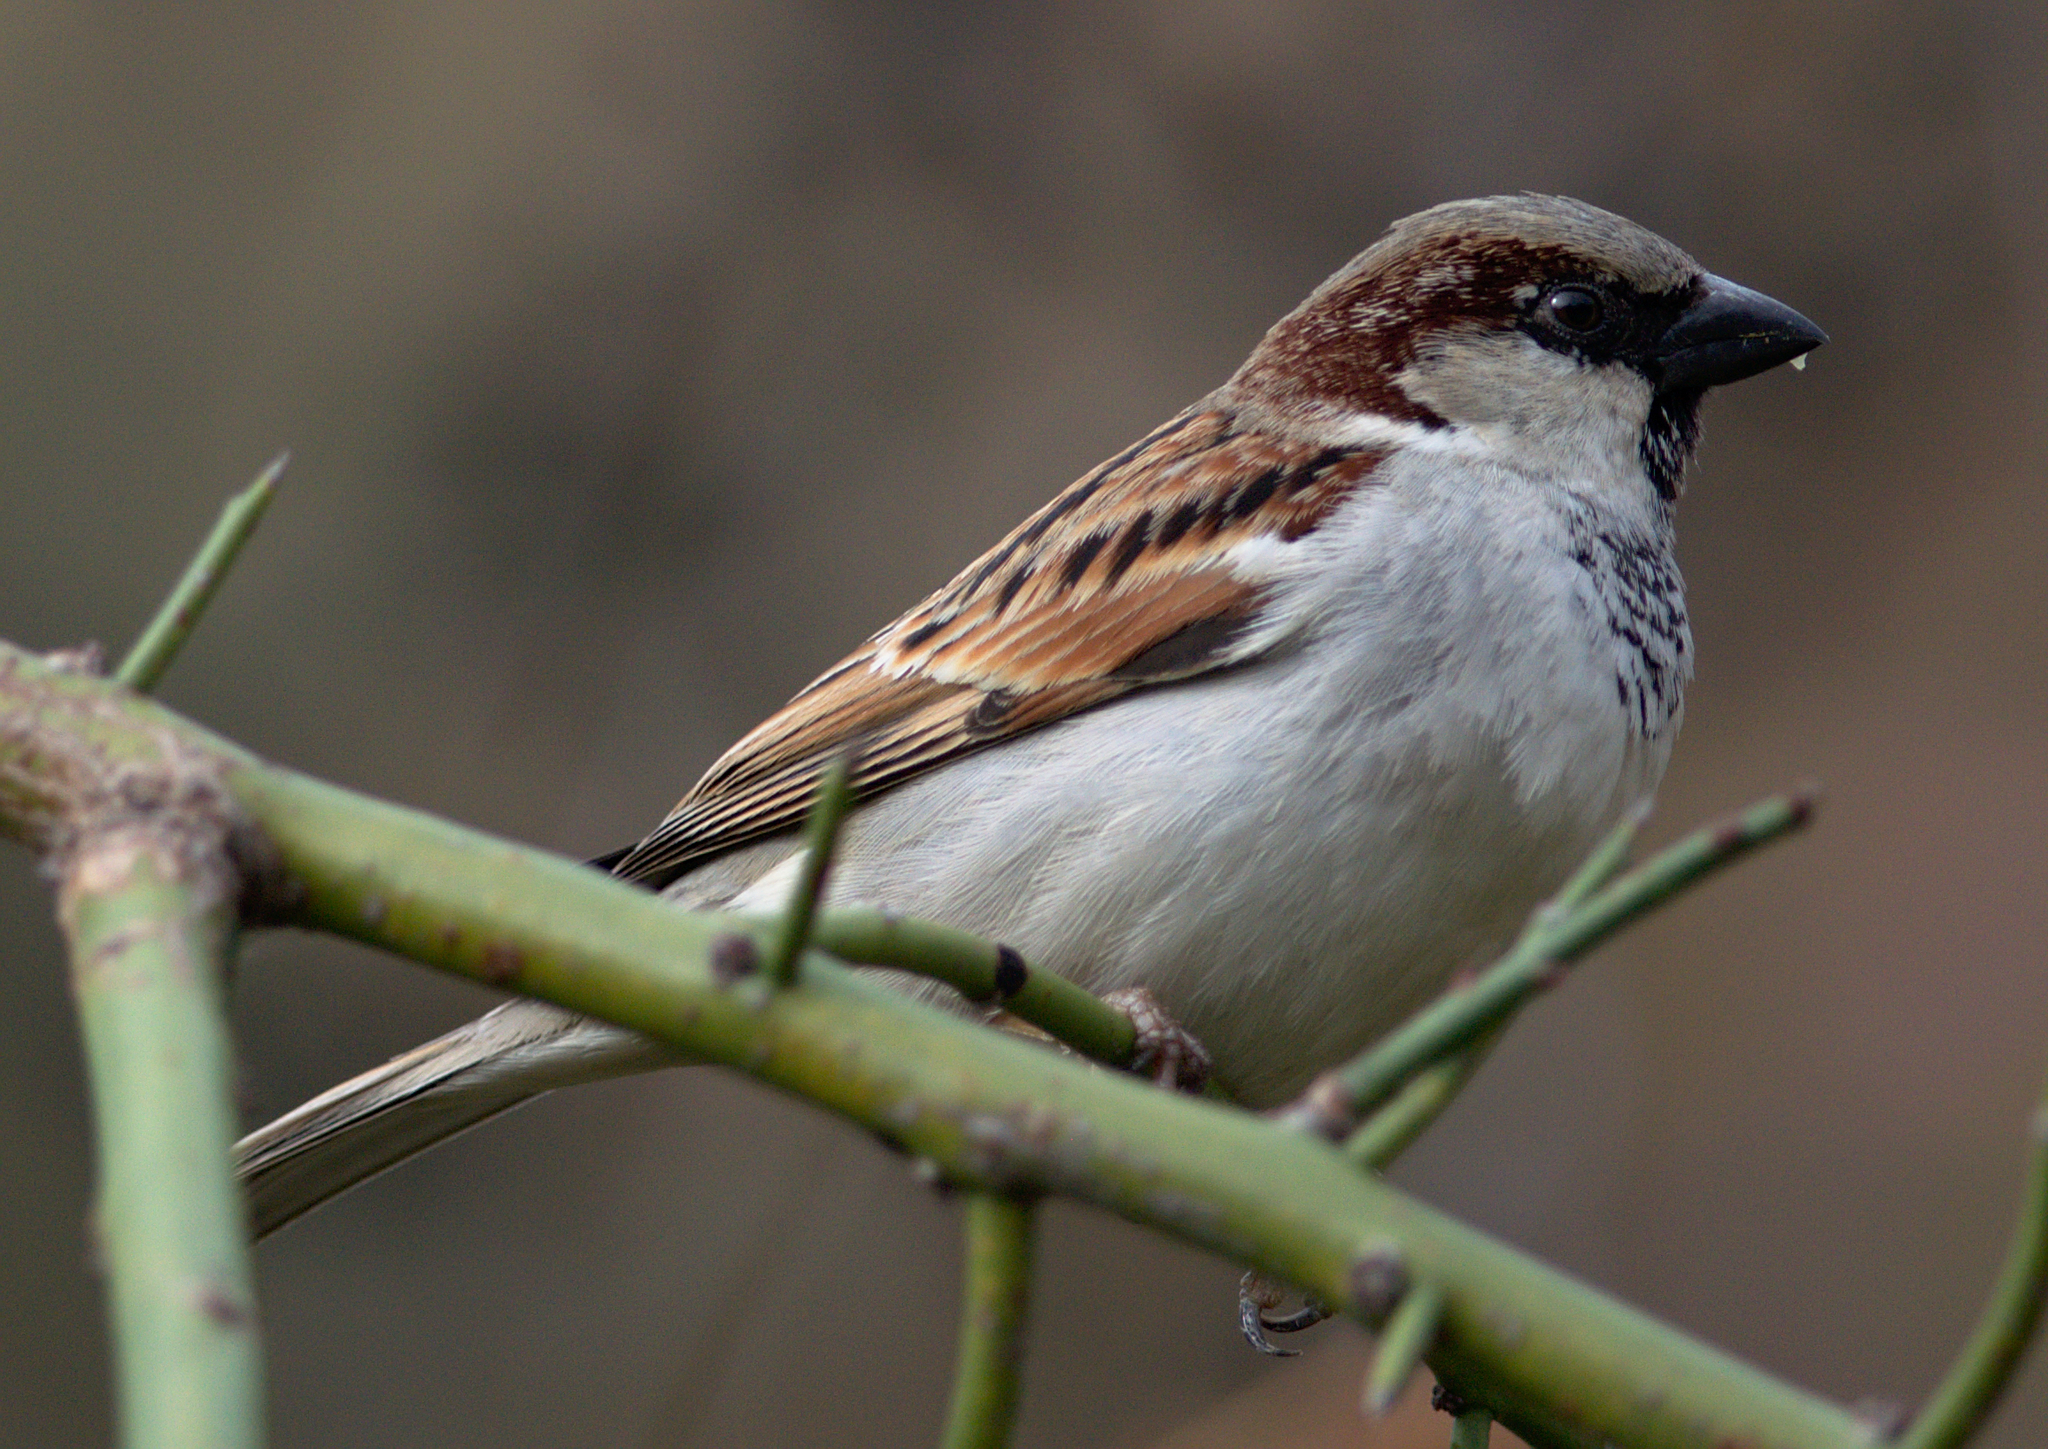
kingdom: Animalia
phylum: Chordata
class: Aves
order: Passeriformes
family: Passeridae
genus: Passer
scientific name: Passer domesticus
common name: House sparrow
